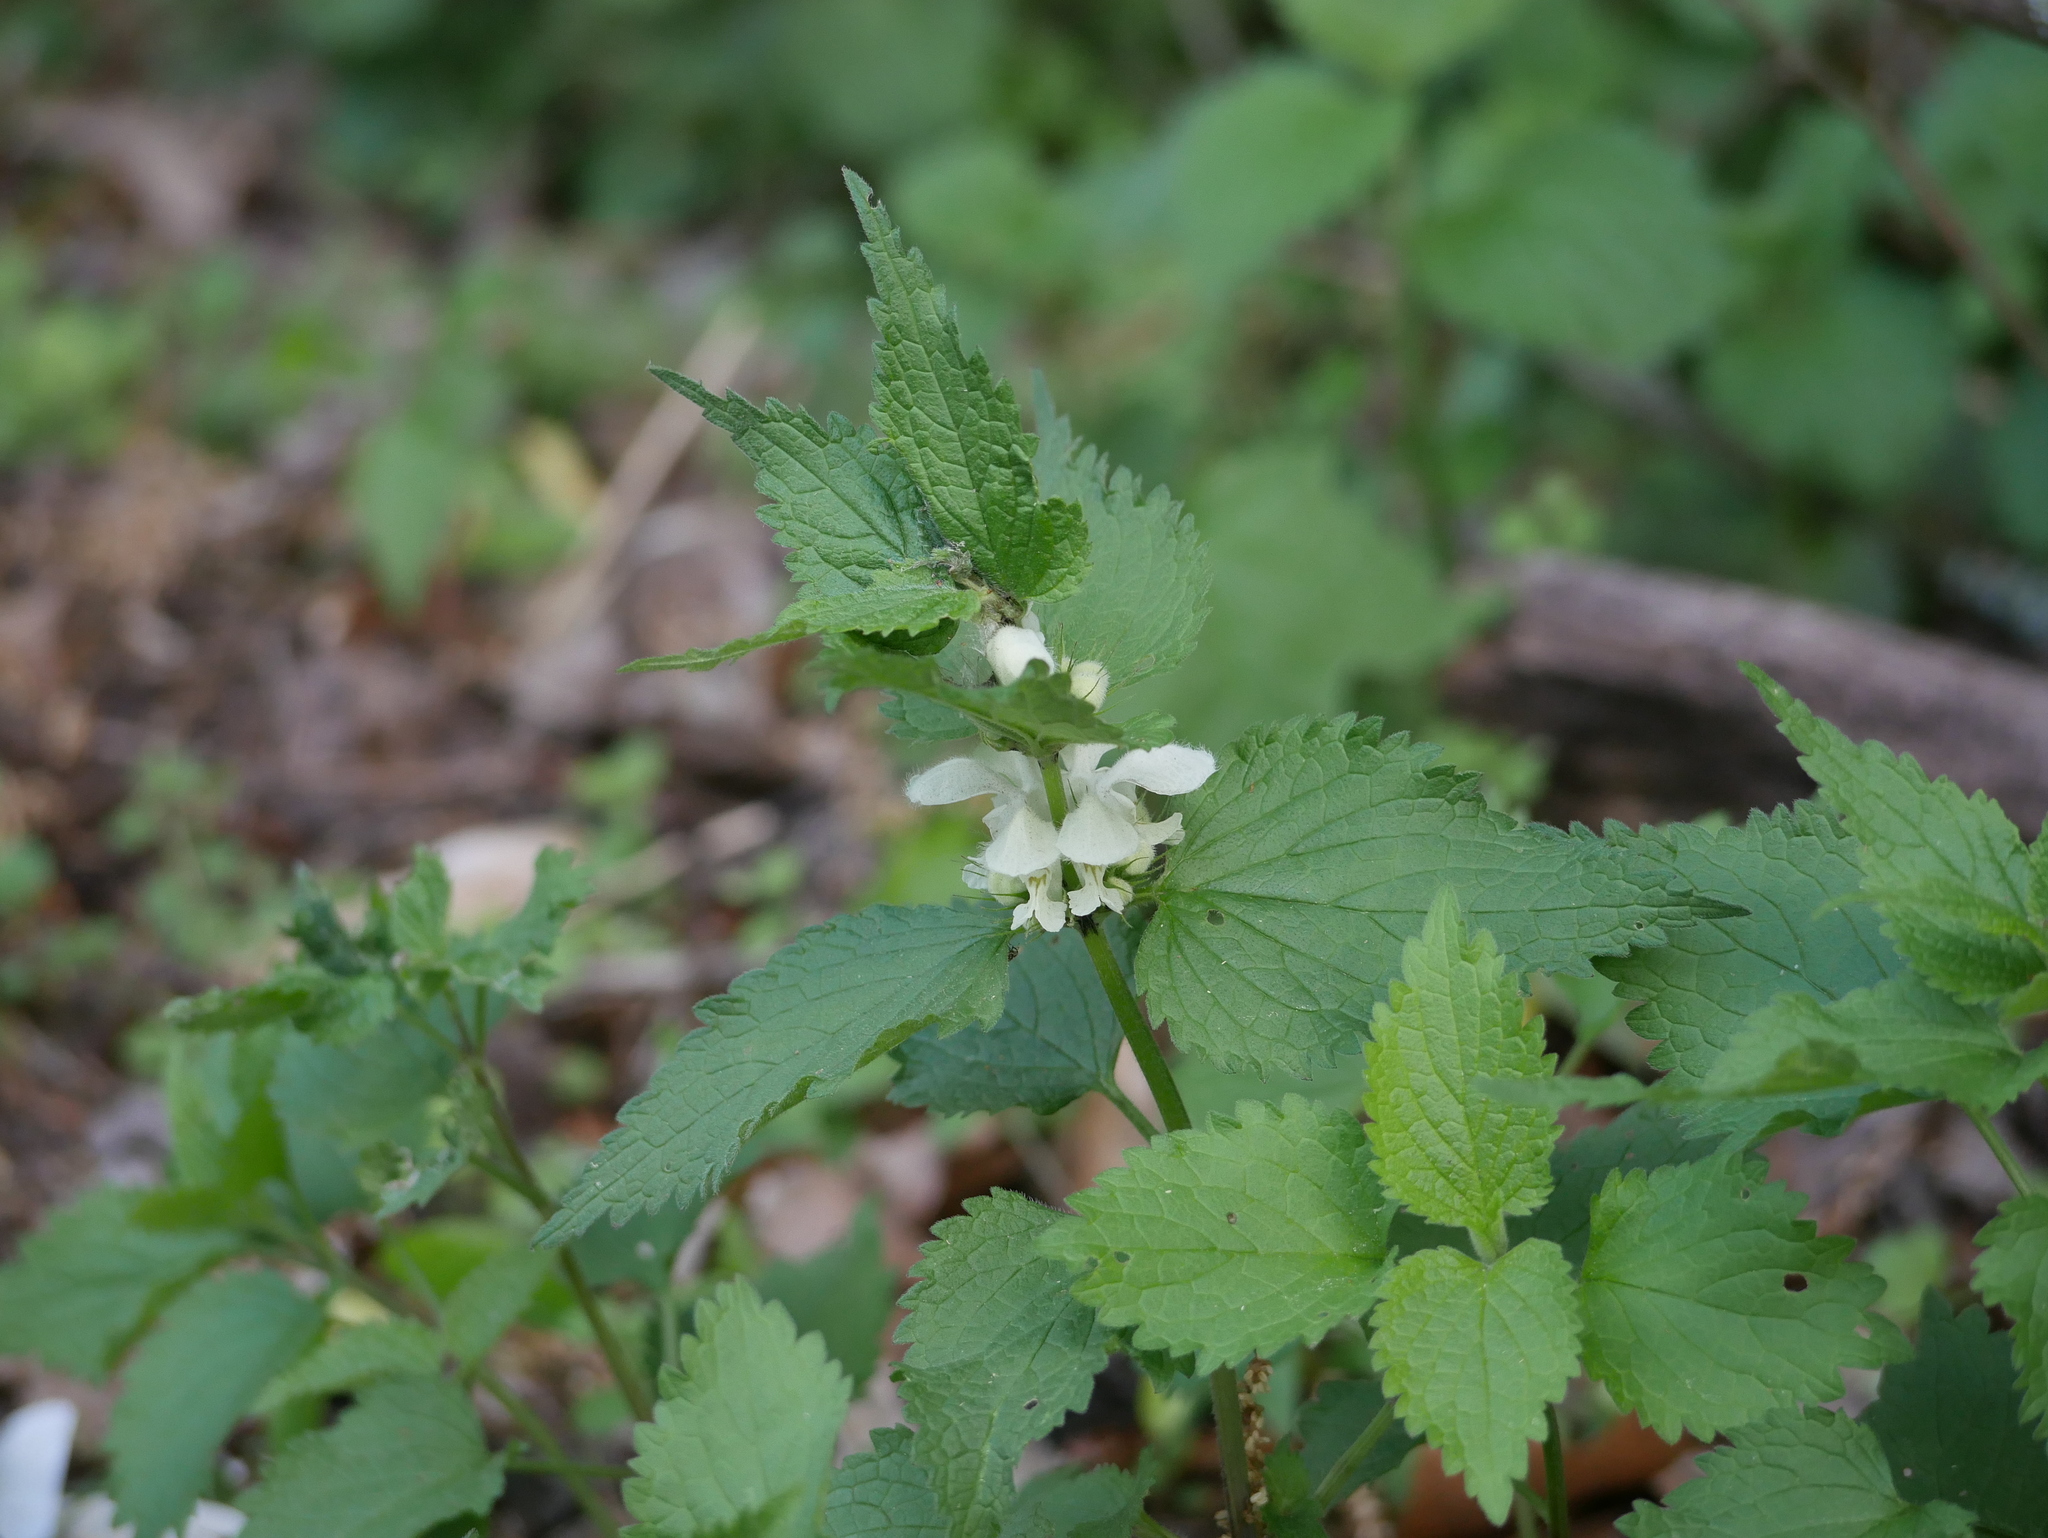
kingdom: Plantae
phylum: Tracheophyta
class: Magnoliopsida
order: Lamiales
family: Lamiaceae
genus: Lamium
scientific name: Lamium album
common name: White dead-nettle
